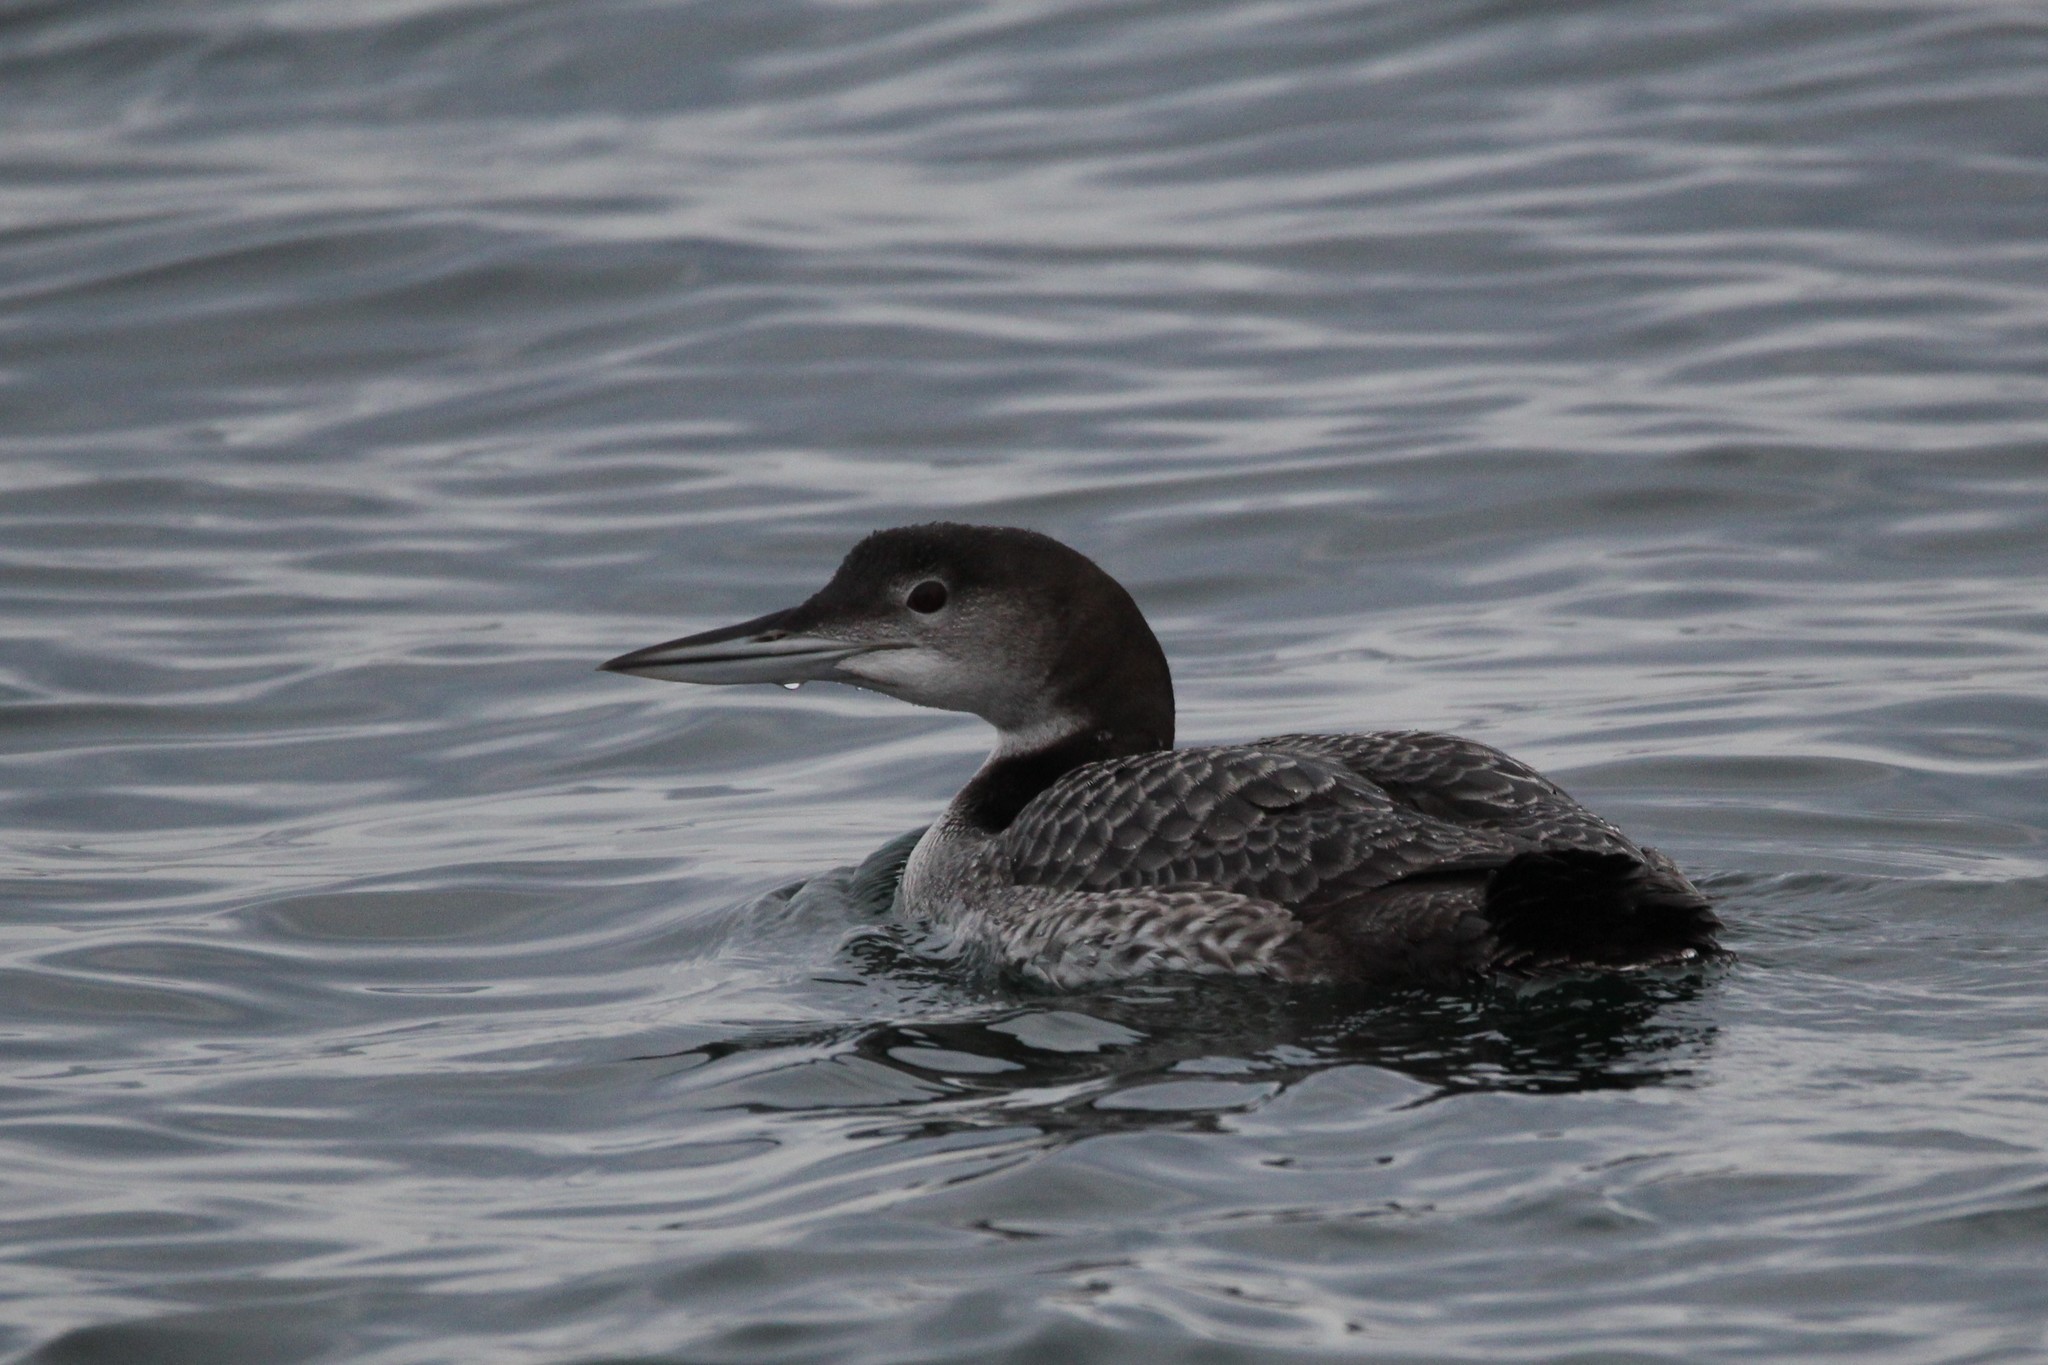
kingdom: Animalia
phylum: Chordata
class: Aves
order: Gaviiformes
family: Gaviidae
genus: Gavia
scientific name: Gavia immer
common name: Common loon
